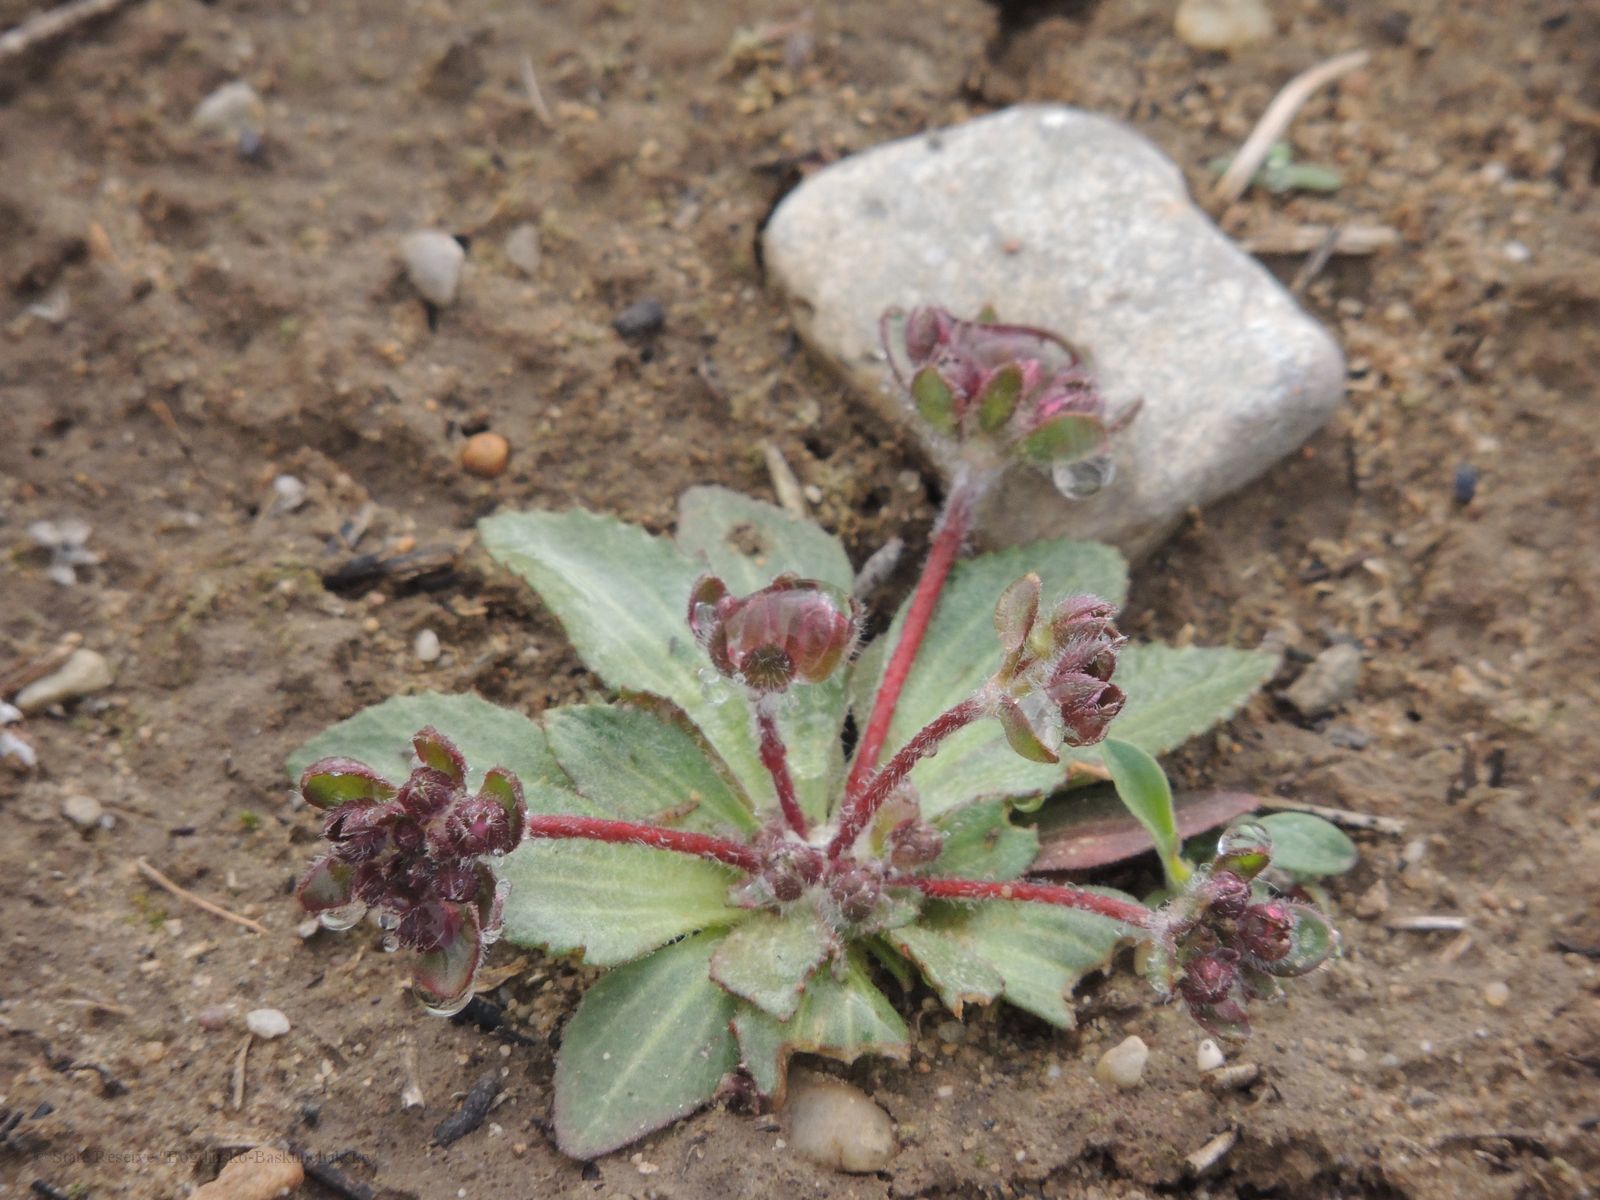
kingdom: Plantae
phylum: Tracheophyta
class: Magnoliopsida
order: Ericales
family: Primulaceae
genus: Androsace
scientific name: Androsace maxima
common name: Annual androsace
